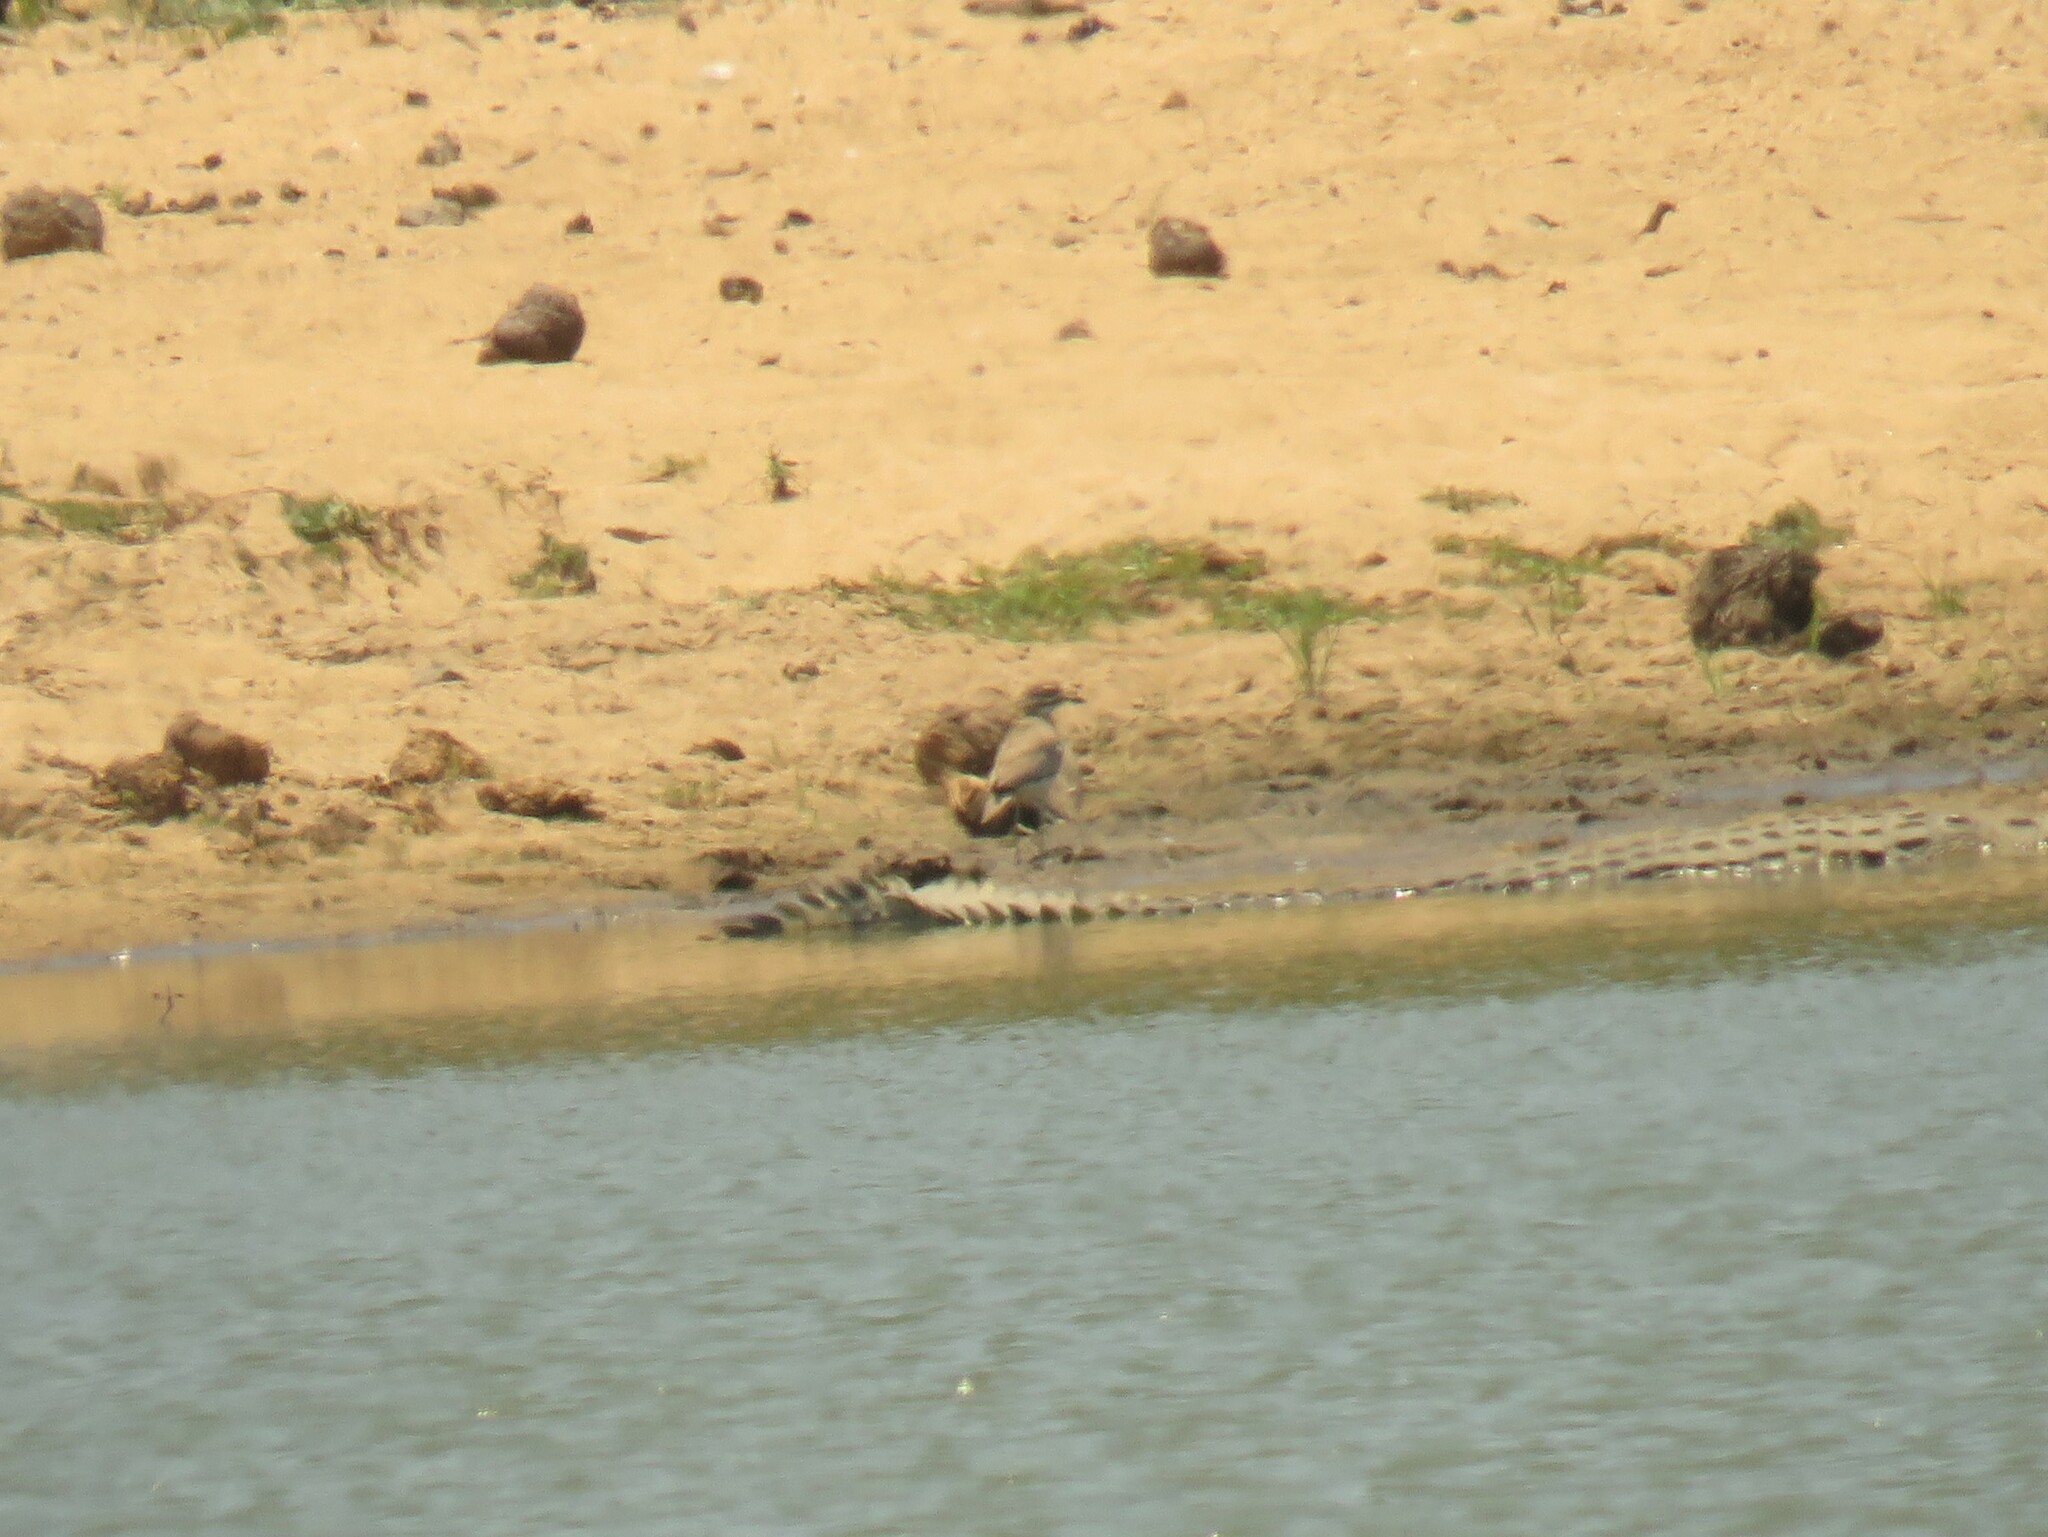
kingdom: Animalia
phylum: Chordata
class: Aves
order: Charadriiformes
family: Burhinidae
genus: Burhinus
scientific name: Burhinus vermiculatus
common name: Water thick-knee
